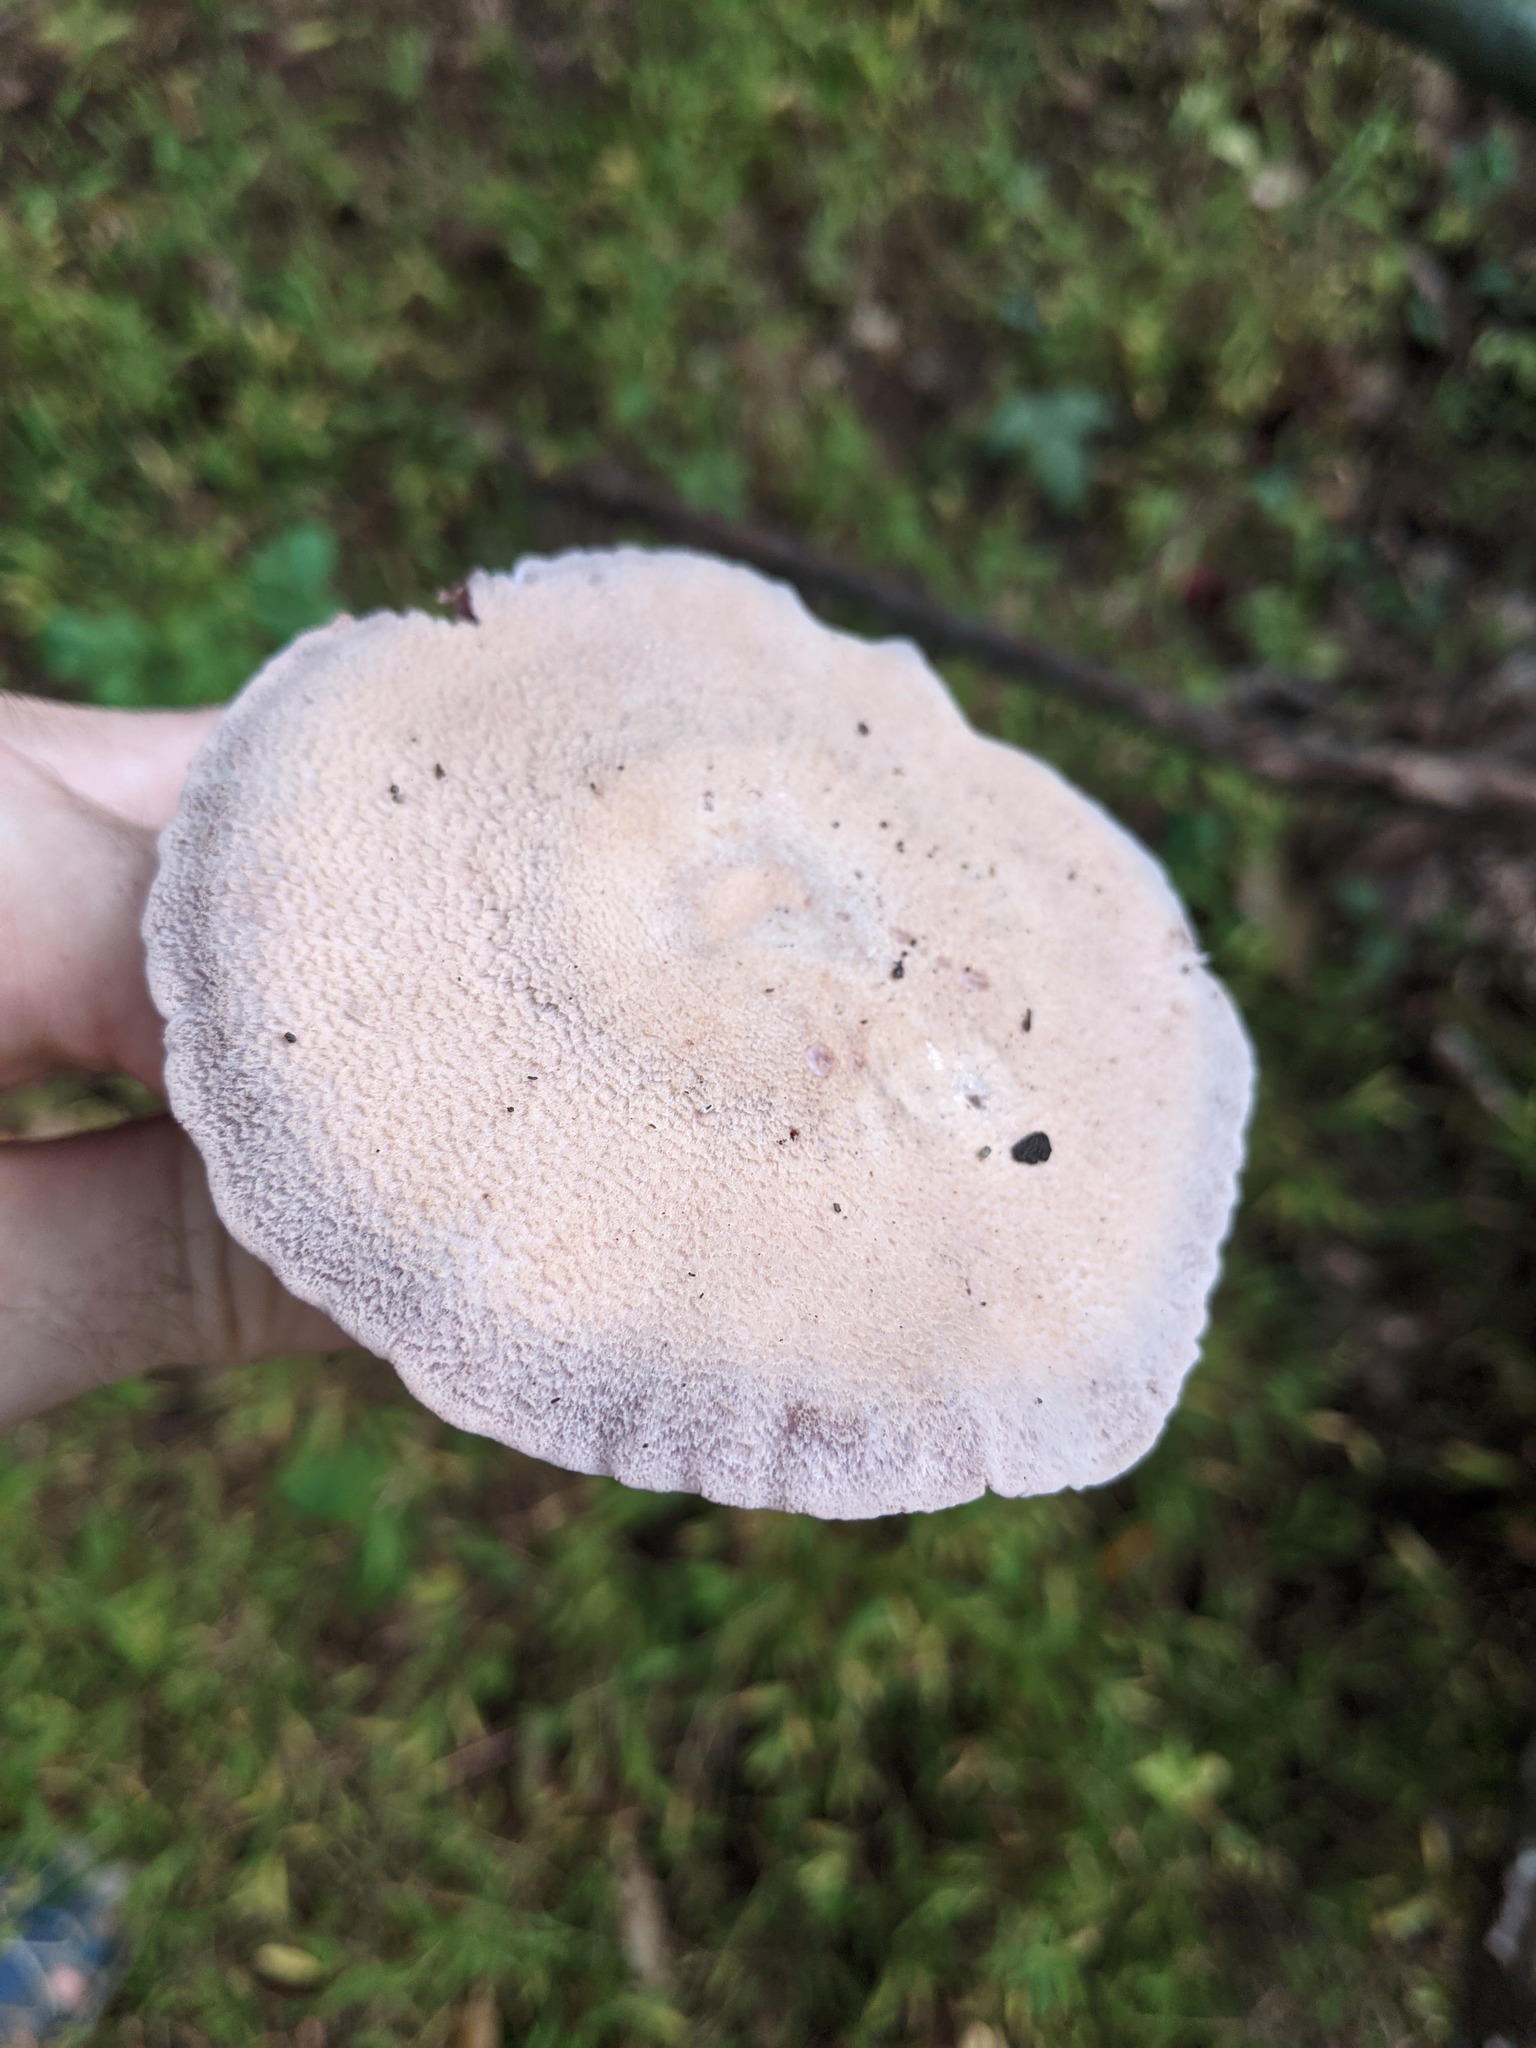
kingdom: Fungi
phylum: Basidiomycota
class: Agaricomycetes
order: Agaricales
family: Hydnangiaceae
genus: Laccaria
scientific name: Laccaria ochropurpurea
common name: Purple laccaria
